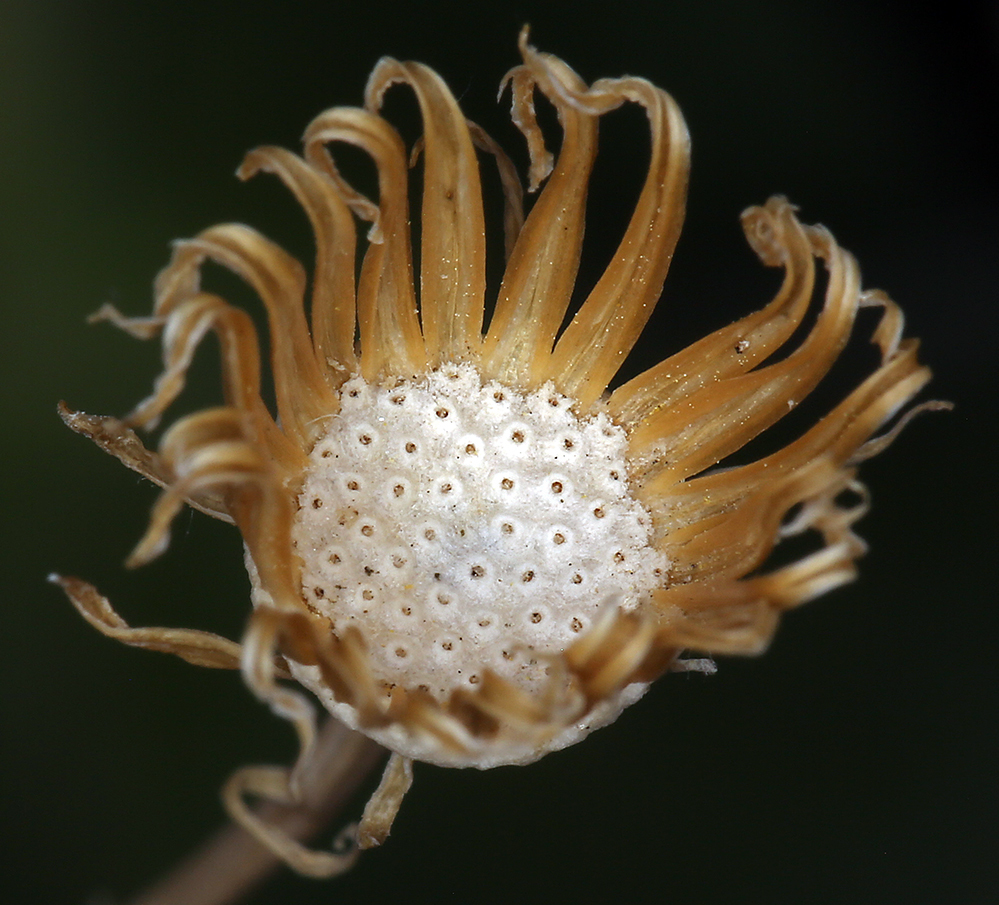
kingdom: Plantae
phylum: Tracheophyta
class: Magnoliopsida
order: Asterales
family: Asteraceae
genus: Senecio
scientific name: Senecio flaccidus
